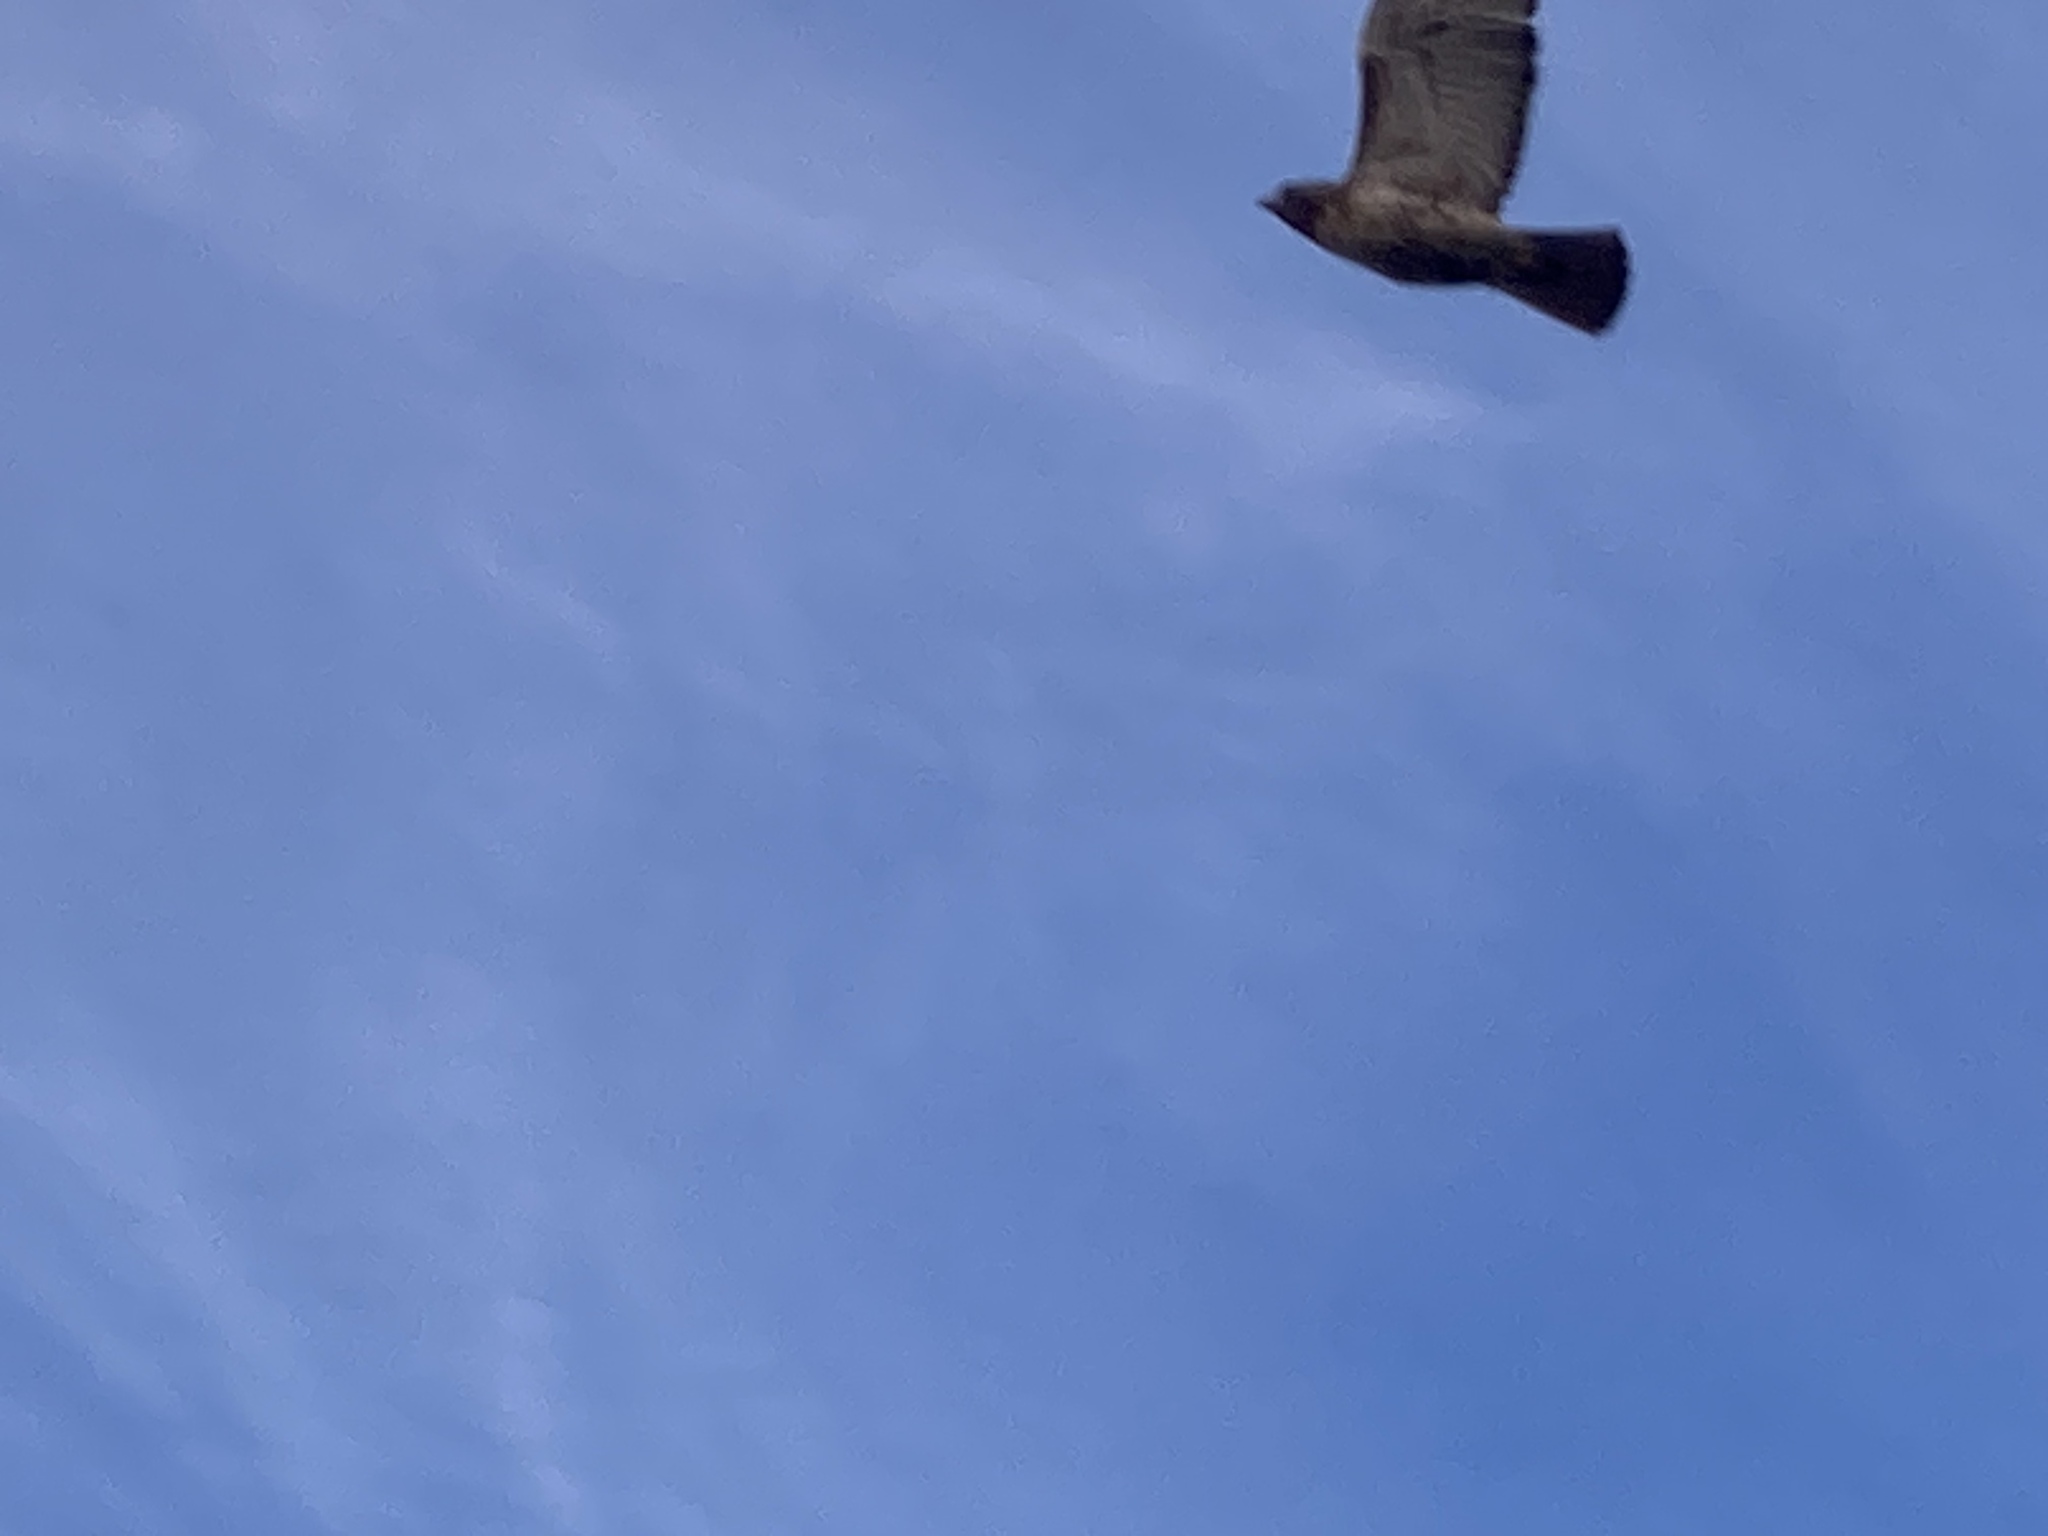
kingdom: Animalia
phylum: Chordata
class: Aves
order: Accipitriformes
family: Accipitridae
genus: Buteo
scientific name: Buteo jamaicensis
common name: Red-tailed hawk
